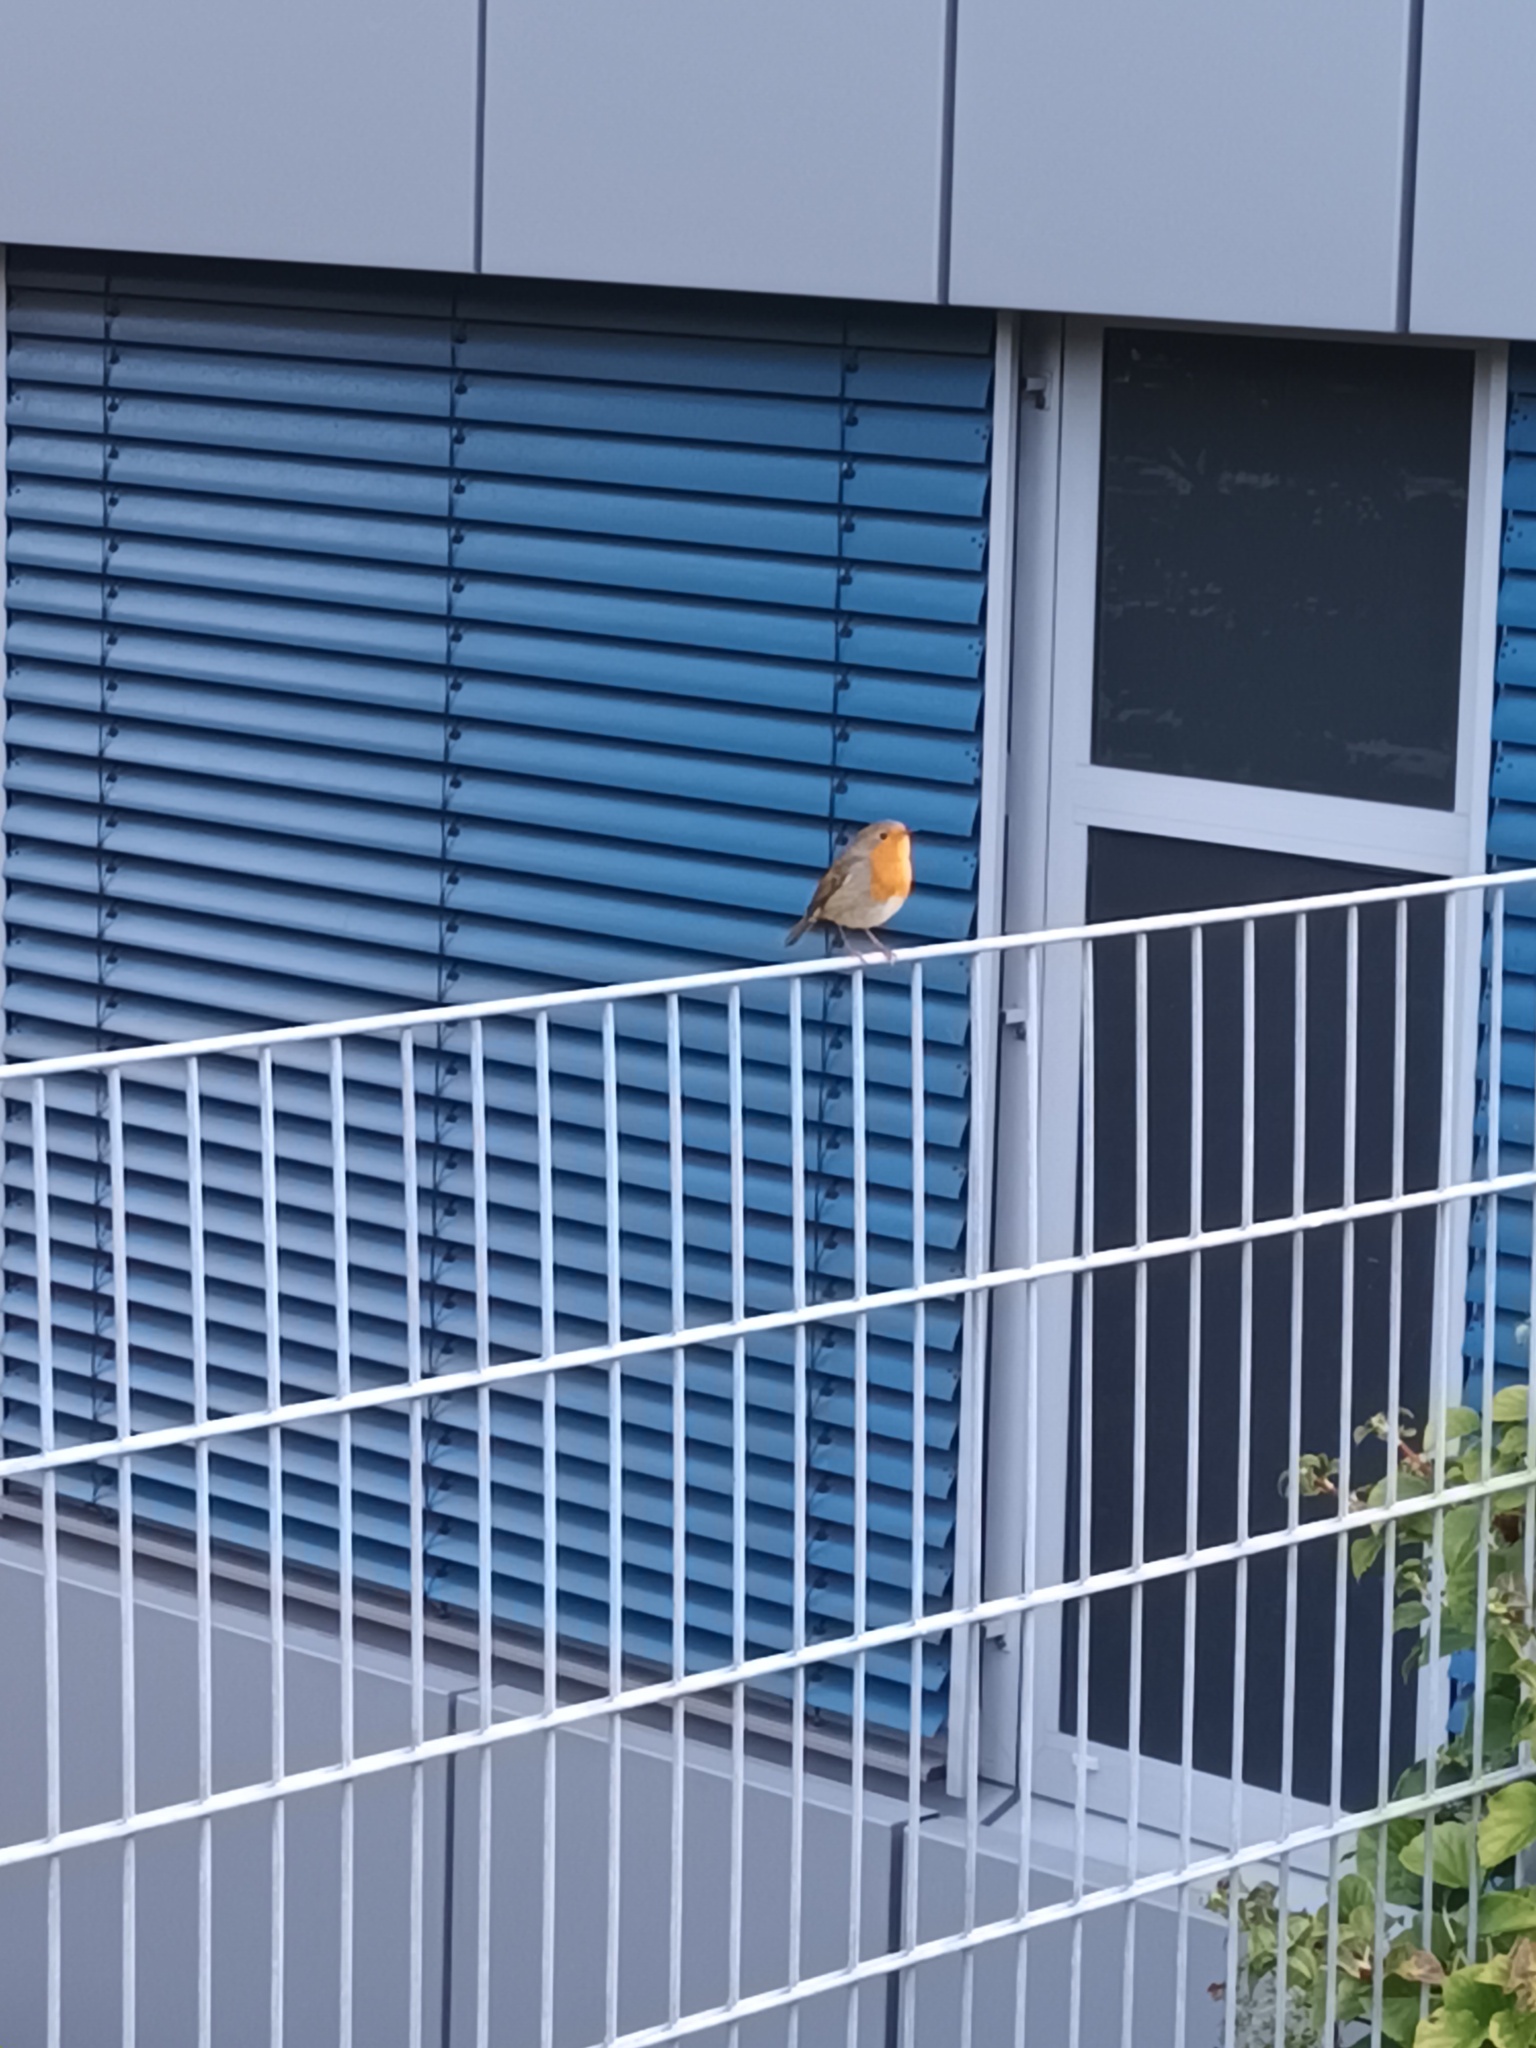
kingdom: Animalia
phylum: Chordata
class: Aves
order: Passeriformes
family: Muscicapidae
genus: Erithacus
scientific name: Erithacus rubecula
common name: European robin
